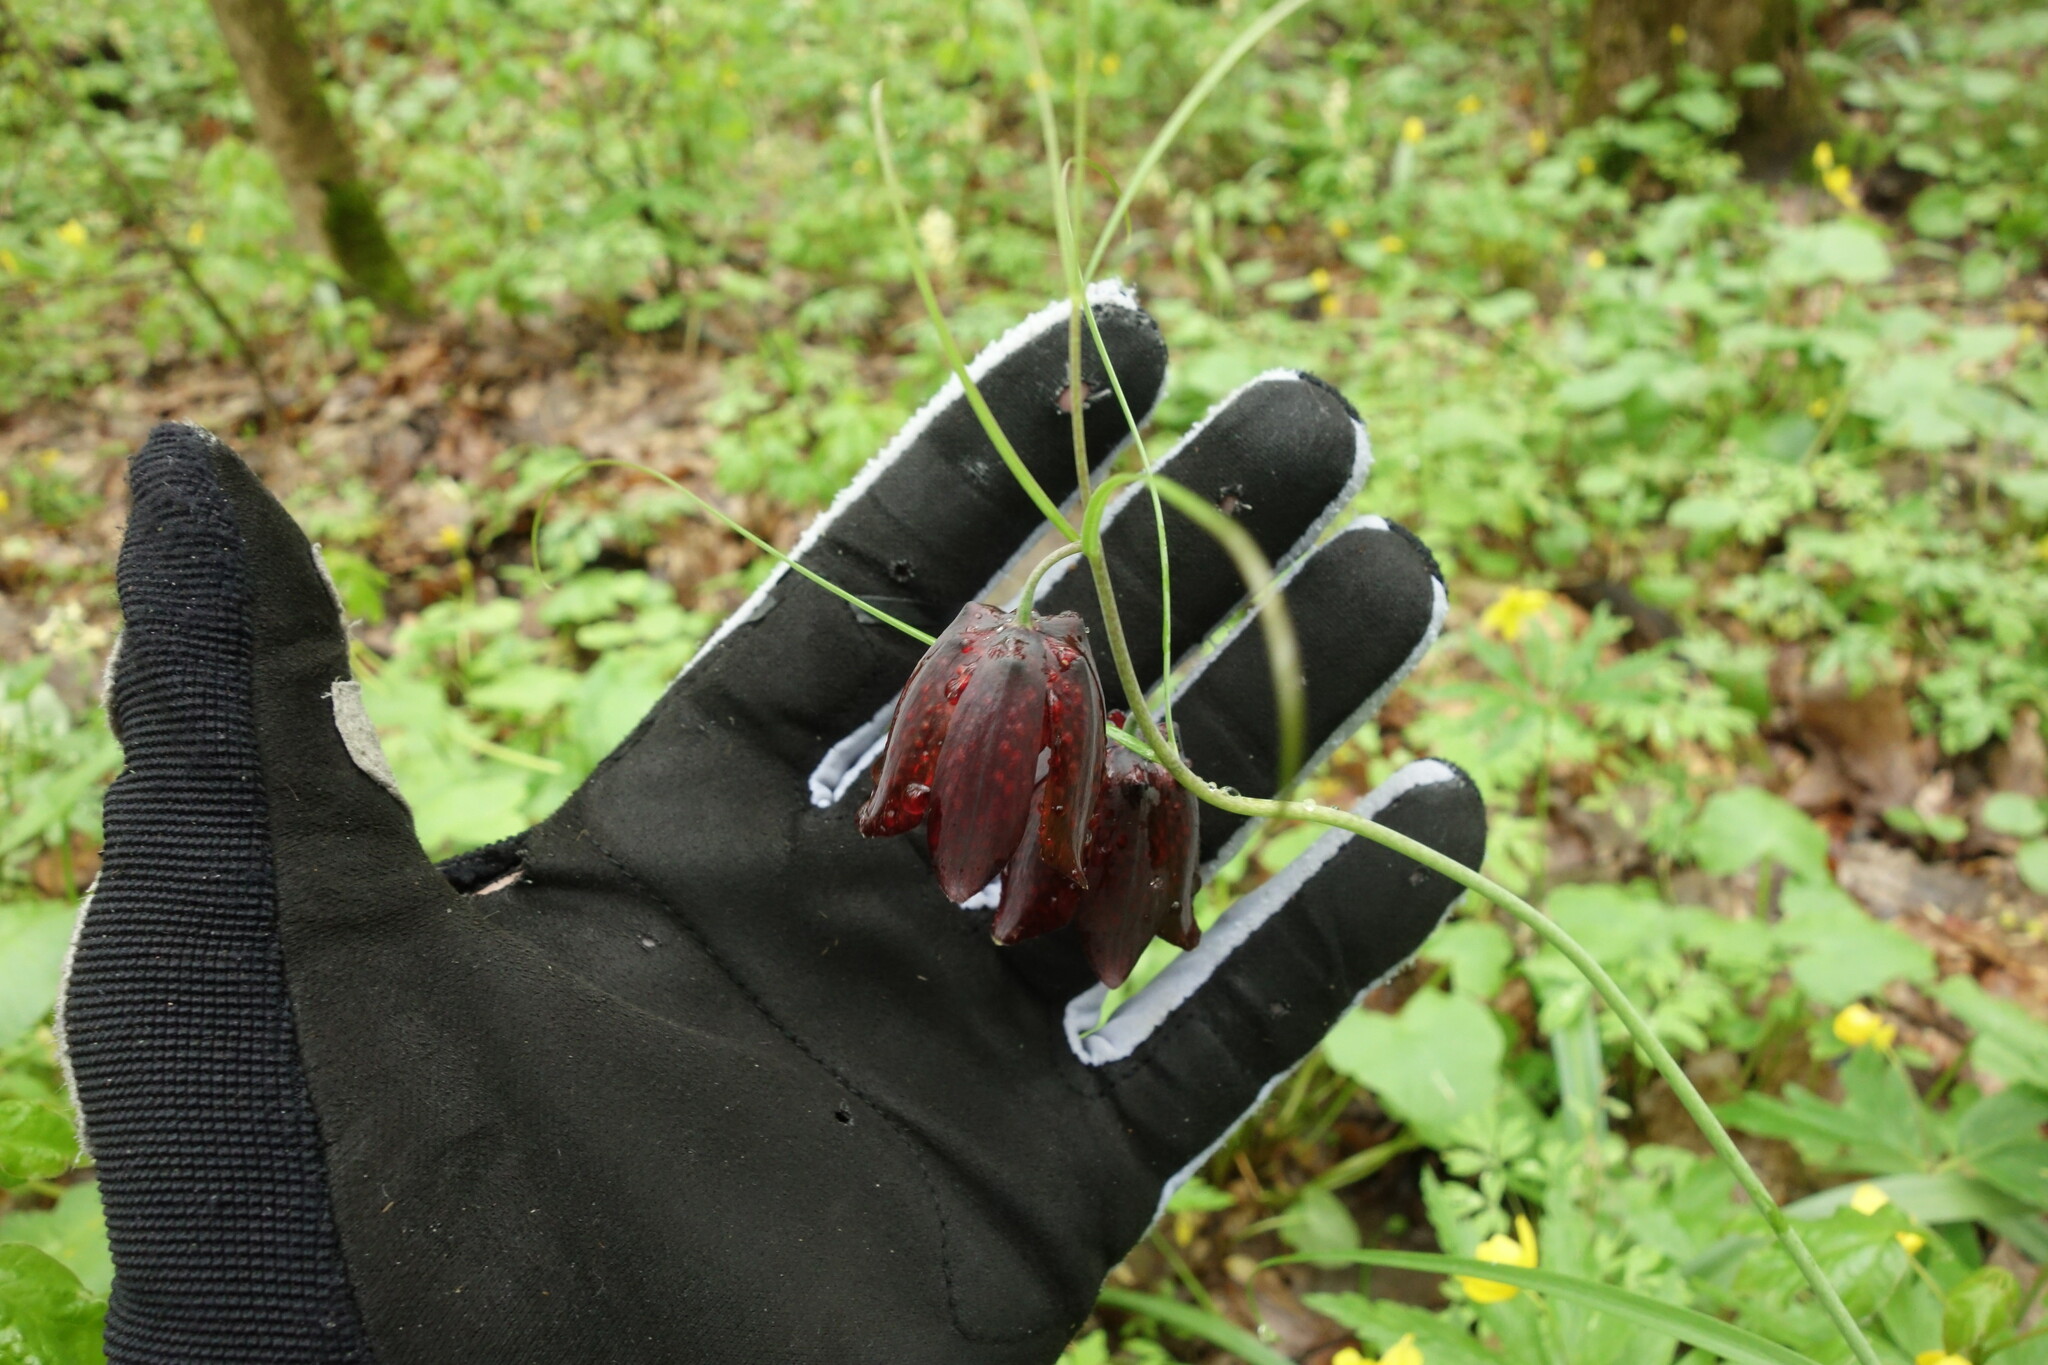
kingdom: Plantae
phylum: Tracheophyta
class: Liliopsida
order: Liliales
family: Liliaceae
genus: Fritillaria
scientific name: Fritillaria ruthenica
